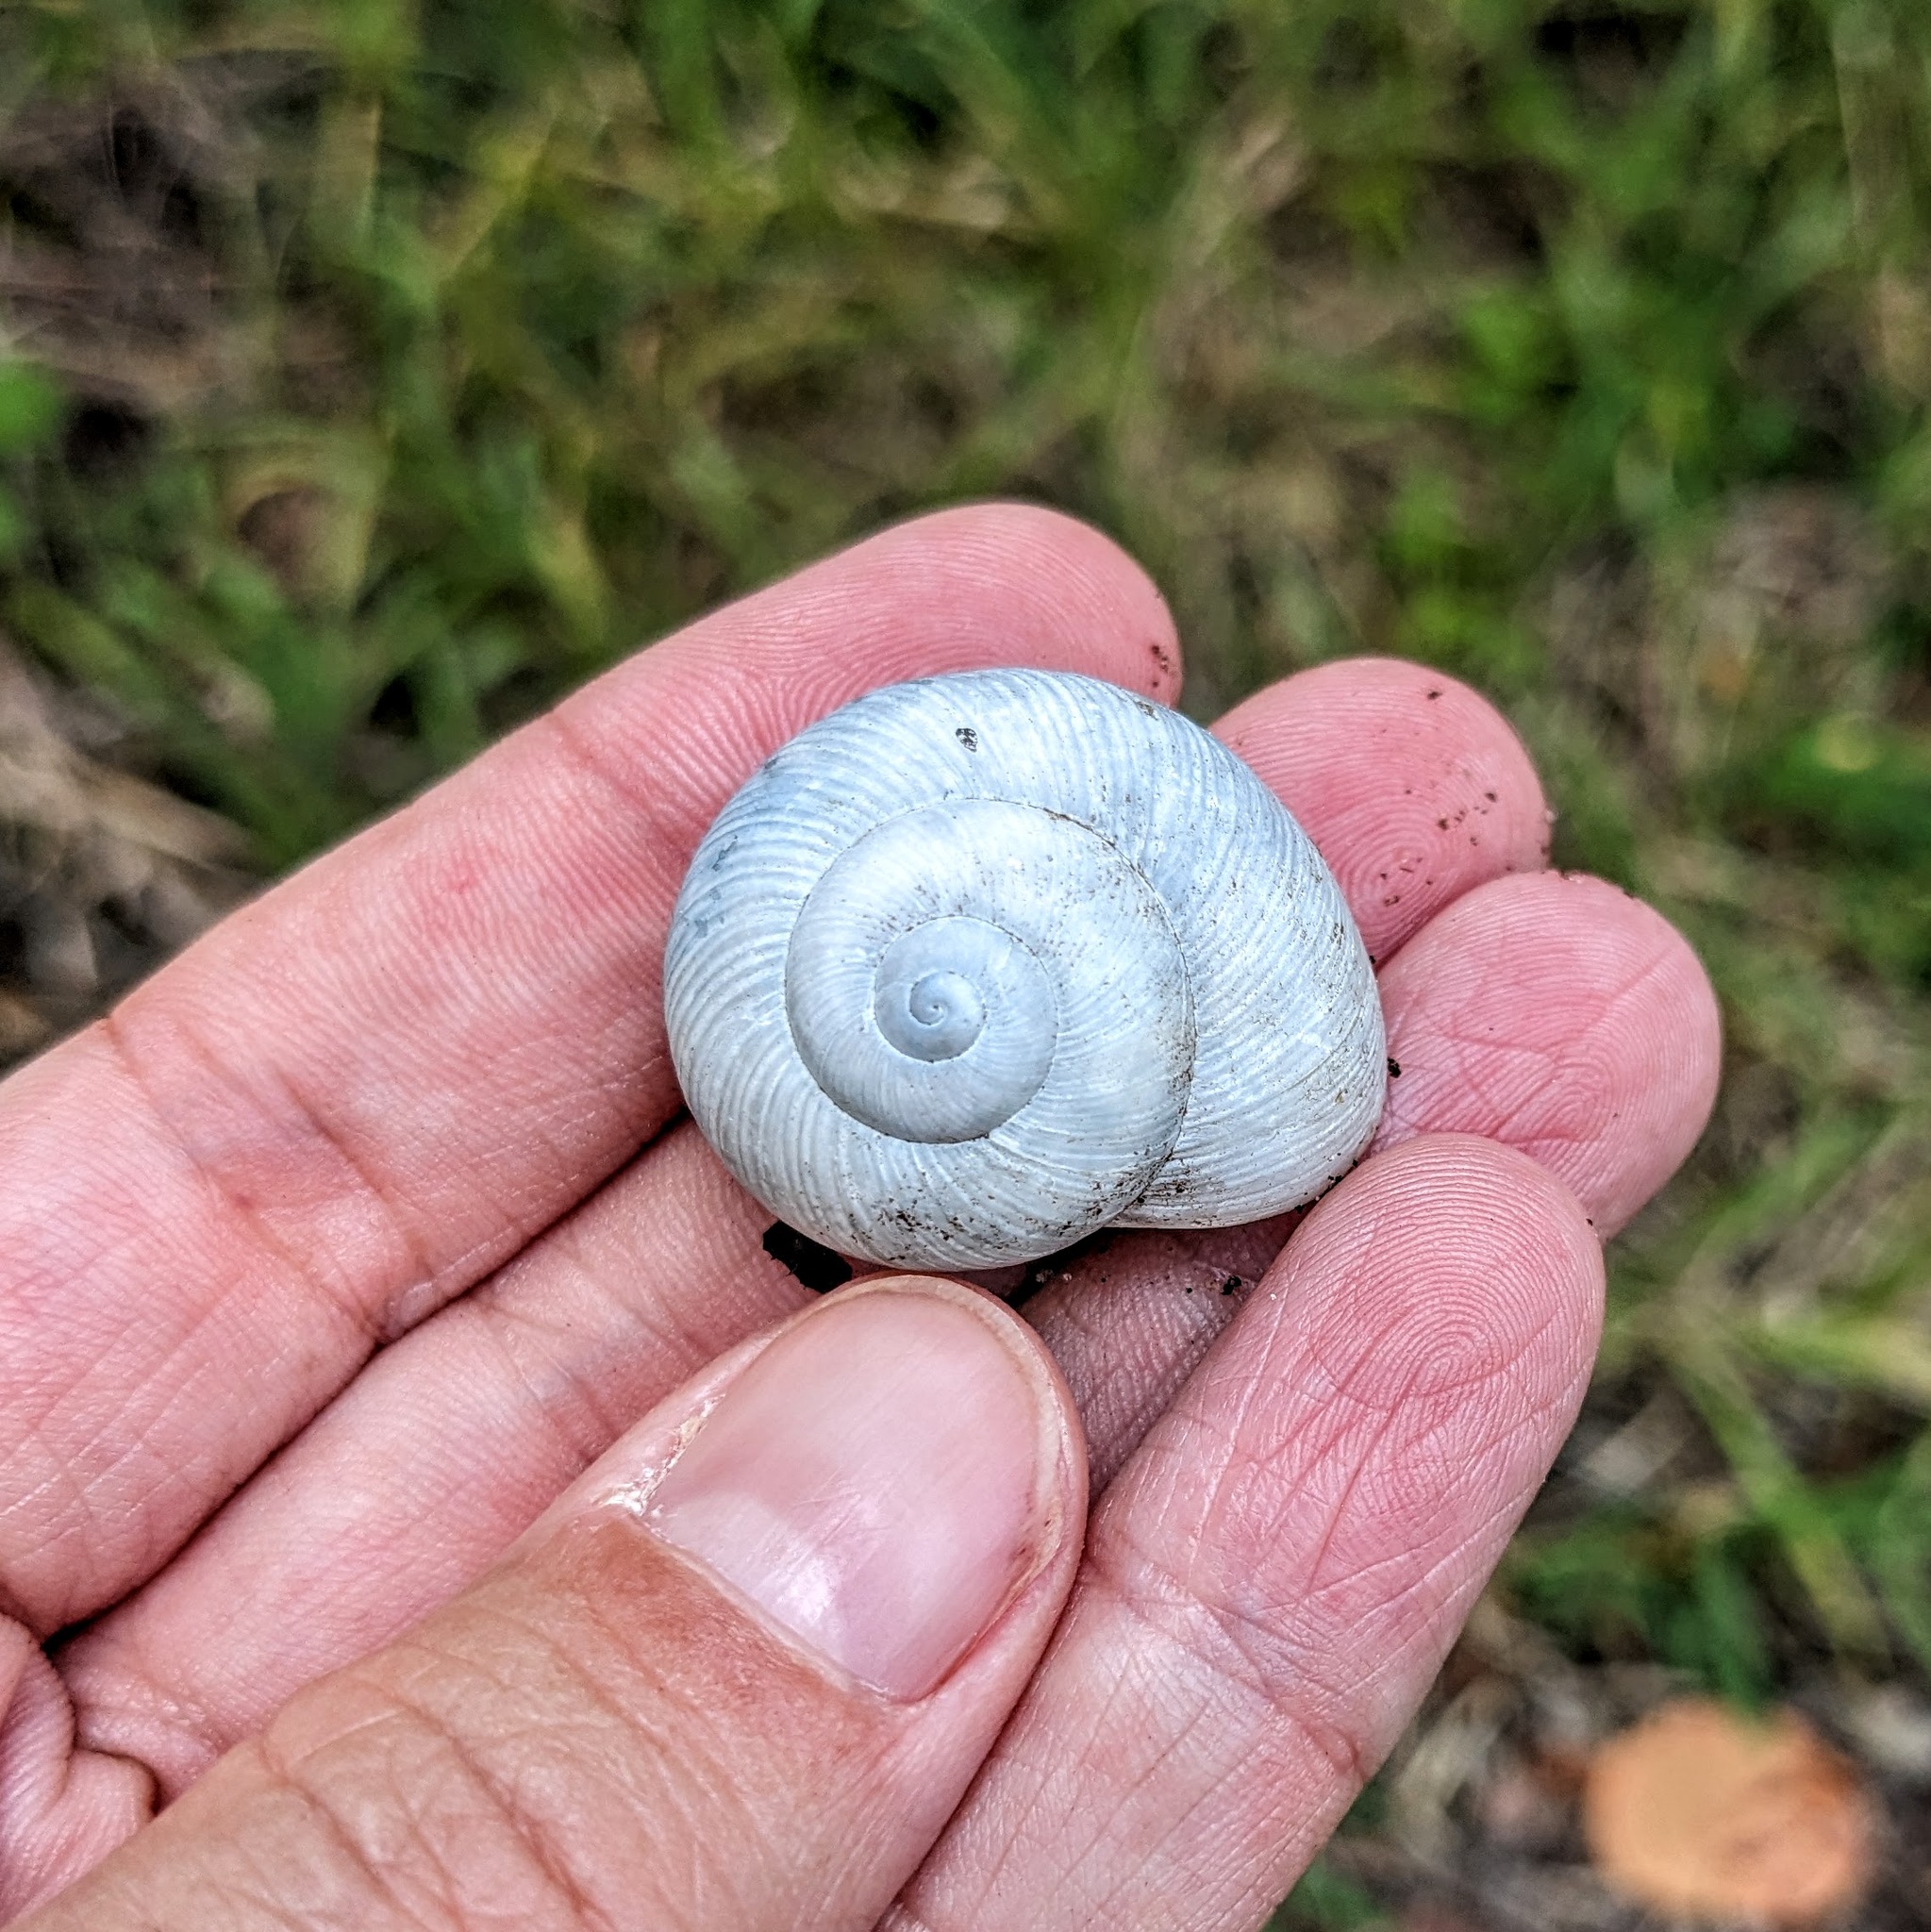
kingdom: Animalia
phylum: Mollusca
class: Gastropoda
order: Stylommatophora
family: Zachrysiidae
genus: Zachrysia
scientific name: Zachrysia provisoria
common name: Garden zachrysia
